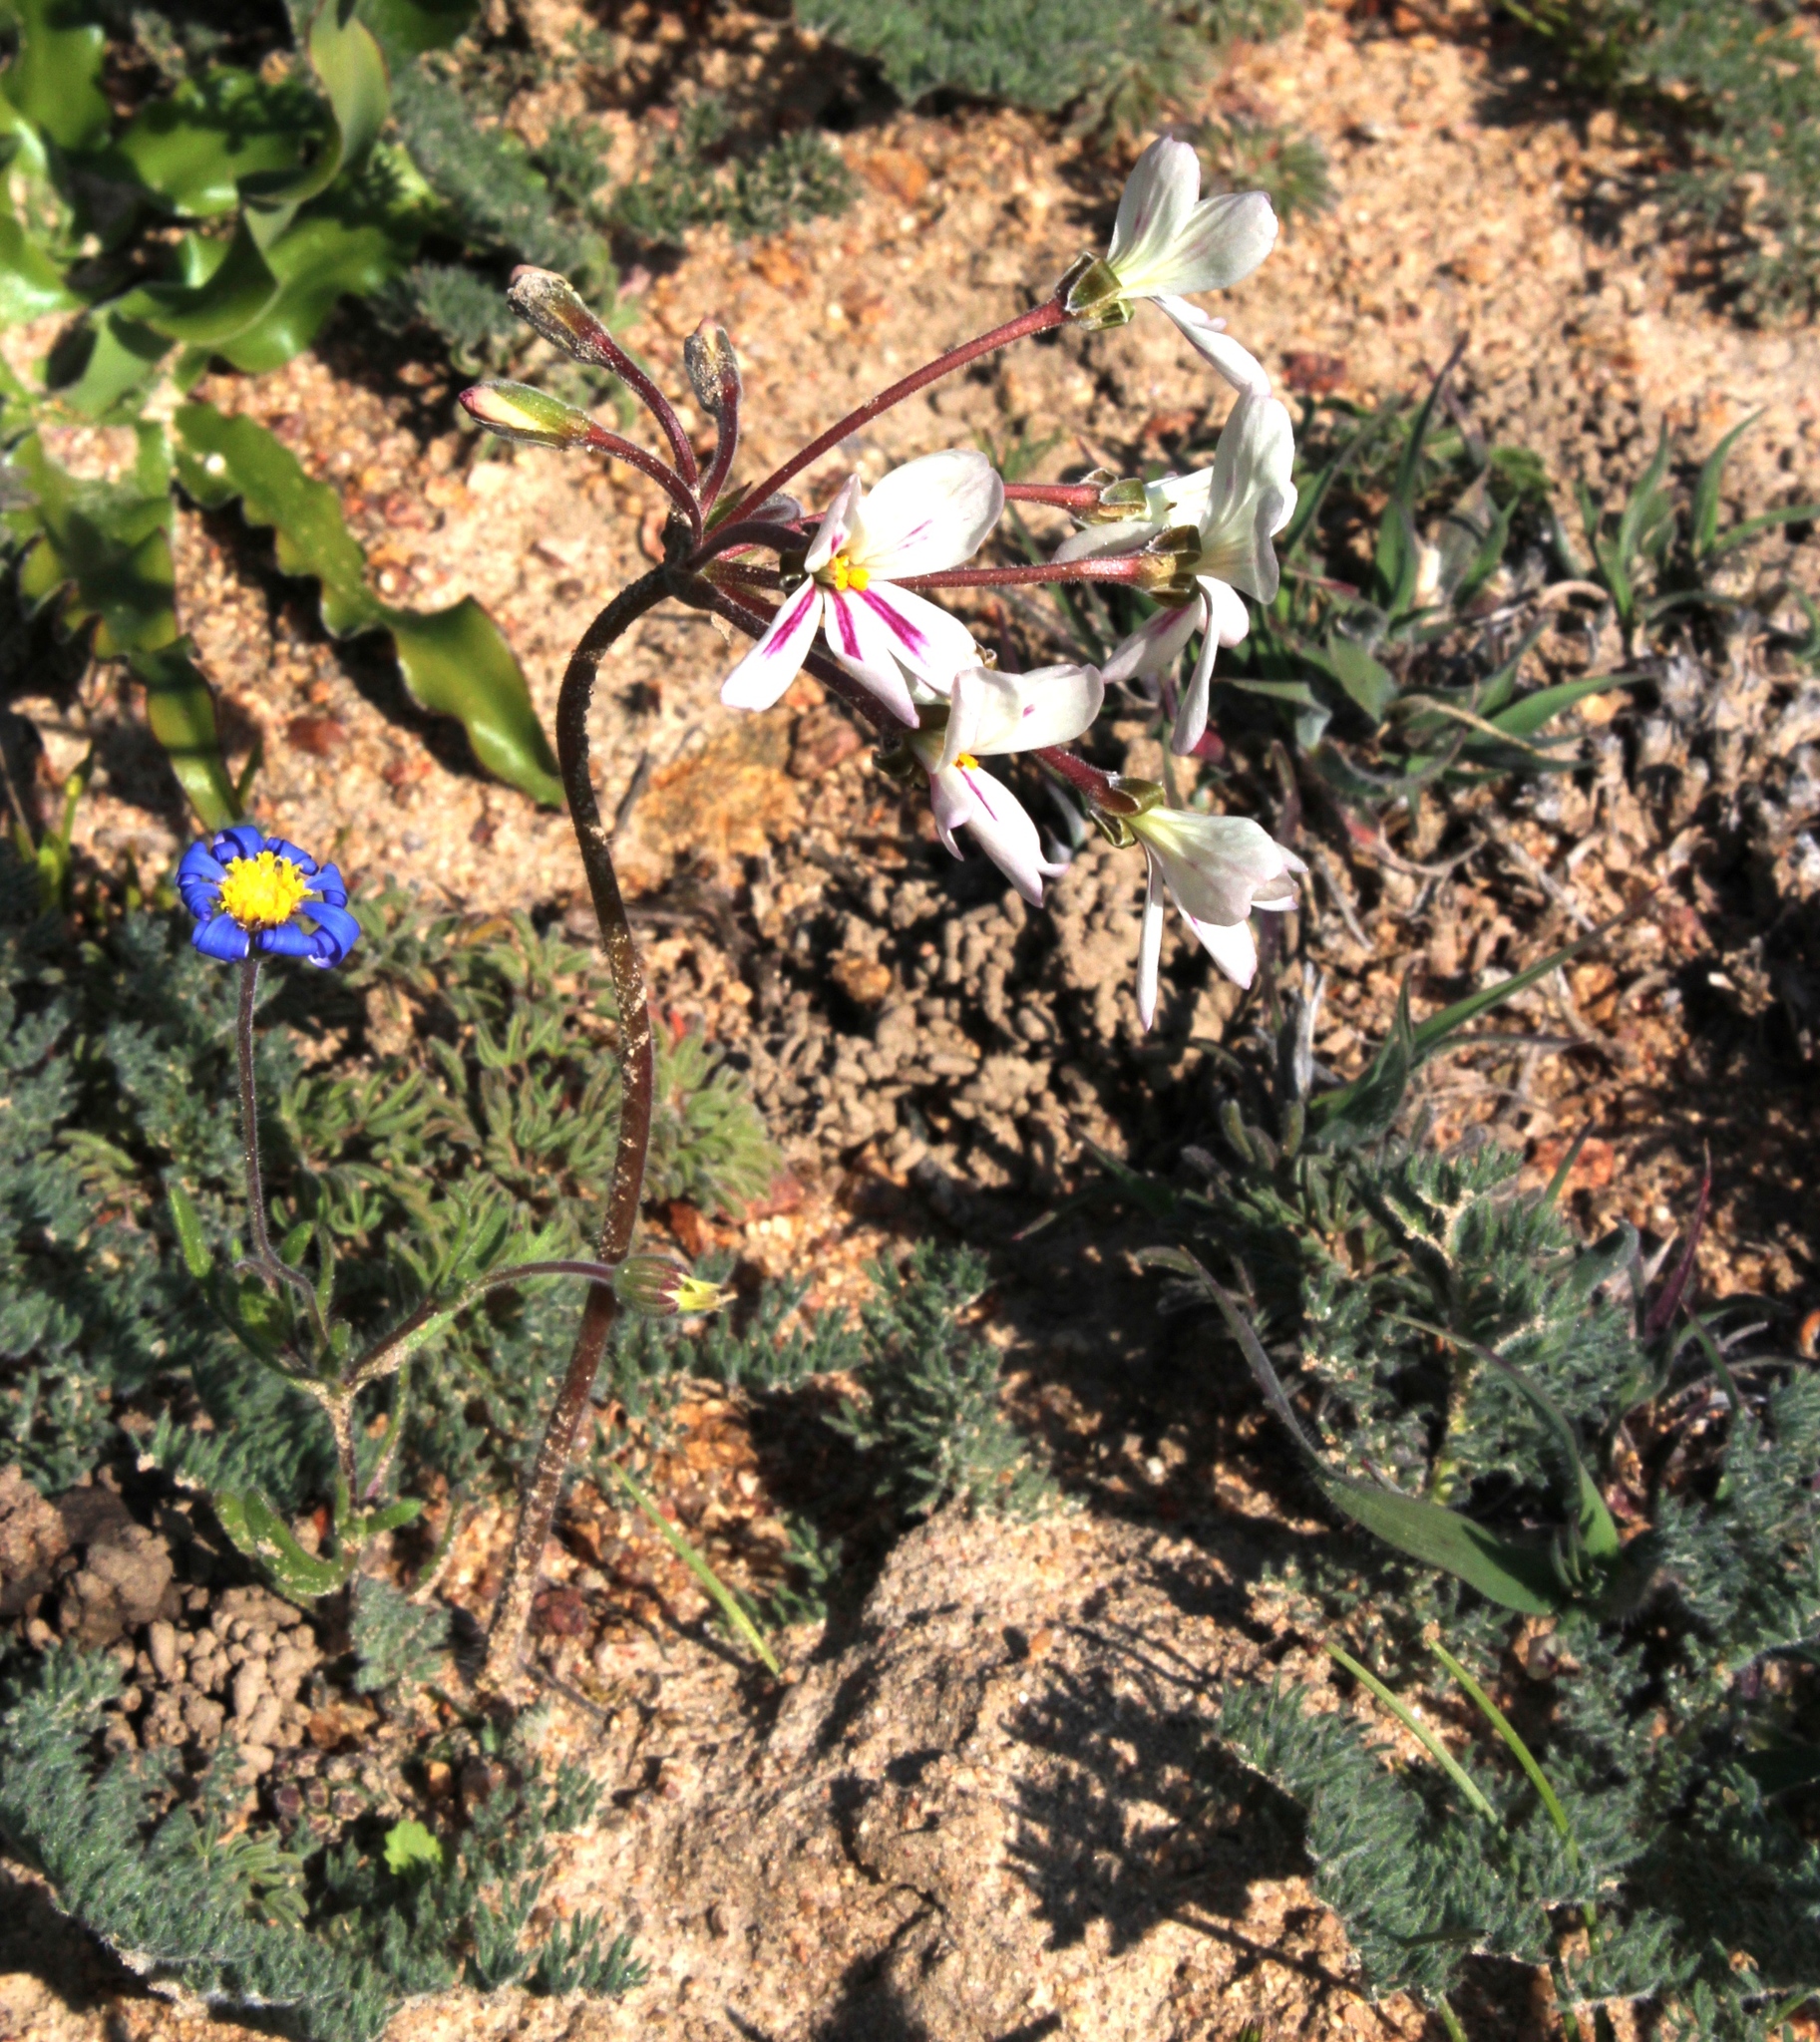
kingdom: Plantae
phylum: Tracheophyta
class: Magnoliopsida
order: Geraniales
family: Geraniaceae
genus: Pelargonium
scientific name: Pelargonium triste
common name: Night-scent pelargonium
